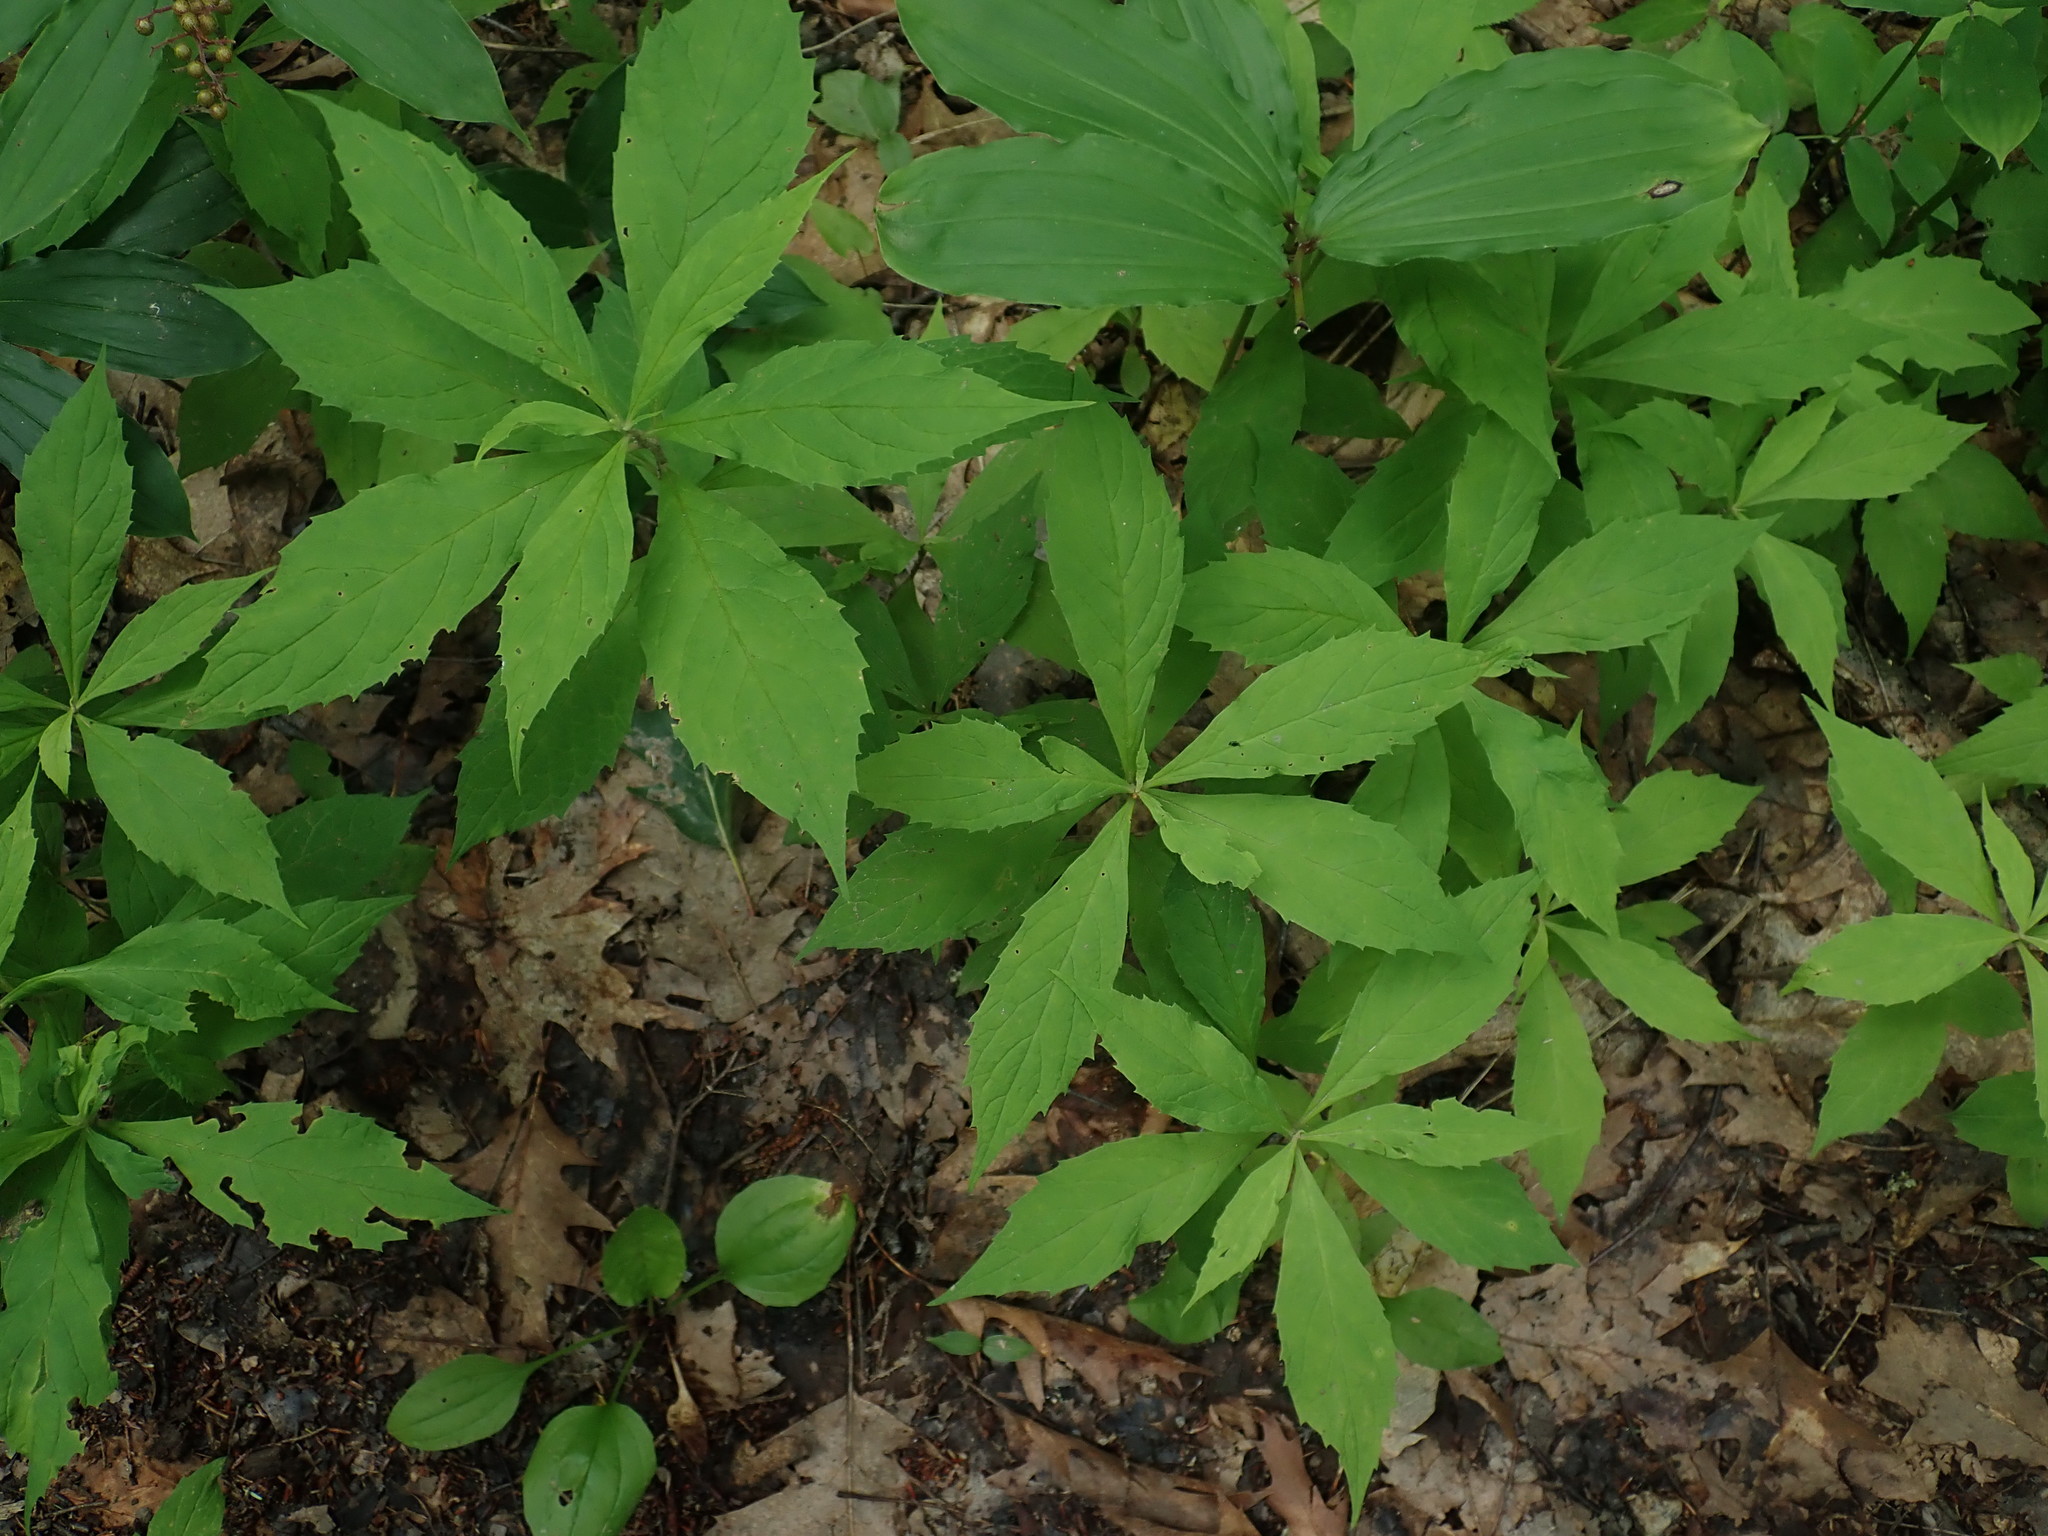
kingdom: Plantae
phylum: Tracheophyta
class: Magnoliopsida
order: Asterales
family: Asteraceae
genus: Oclemena
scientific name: Oclemena acuminata
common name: Mountain aster
